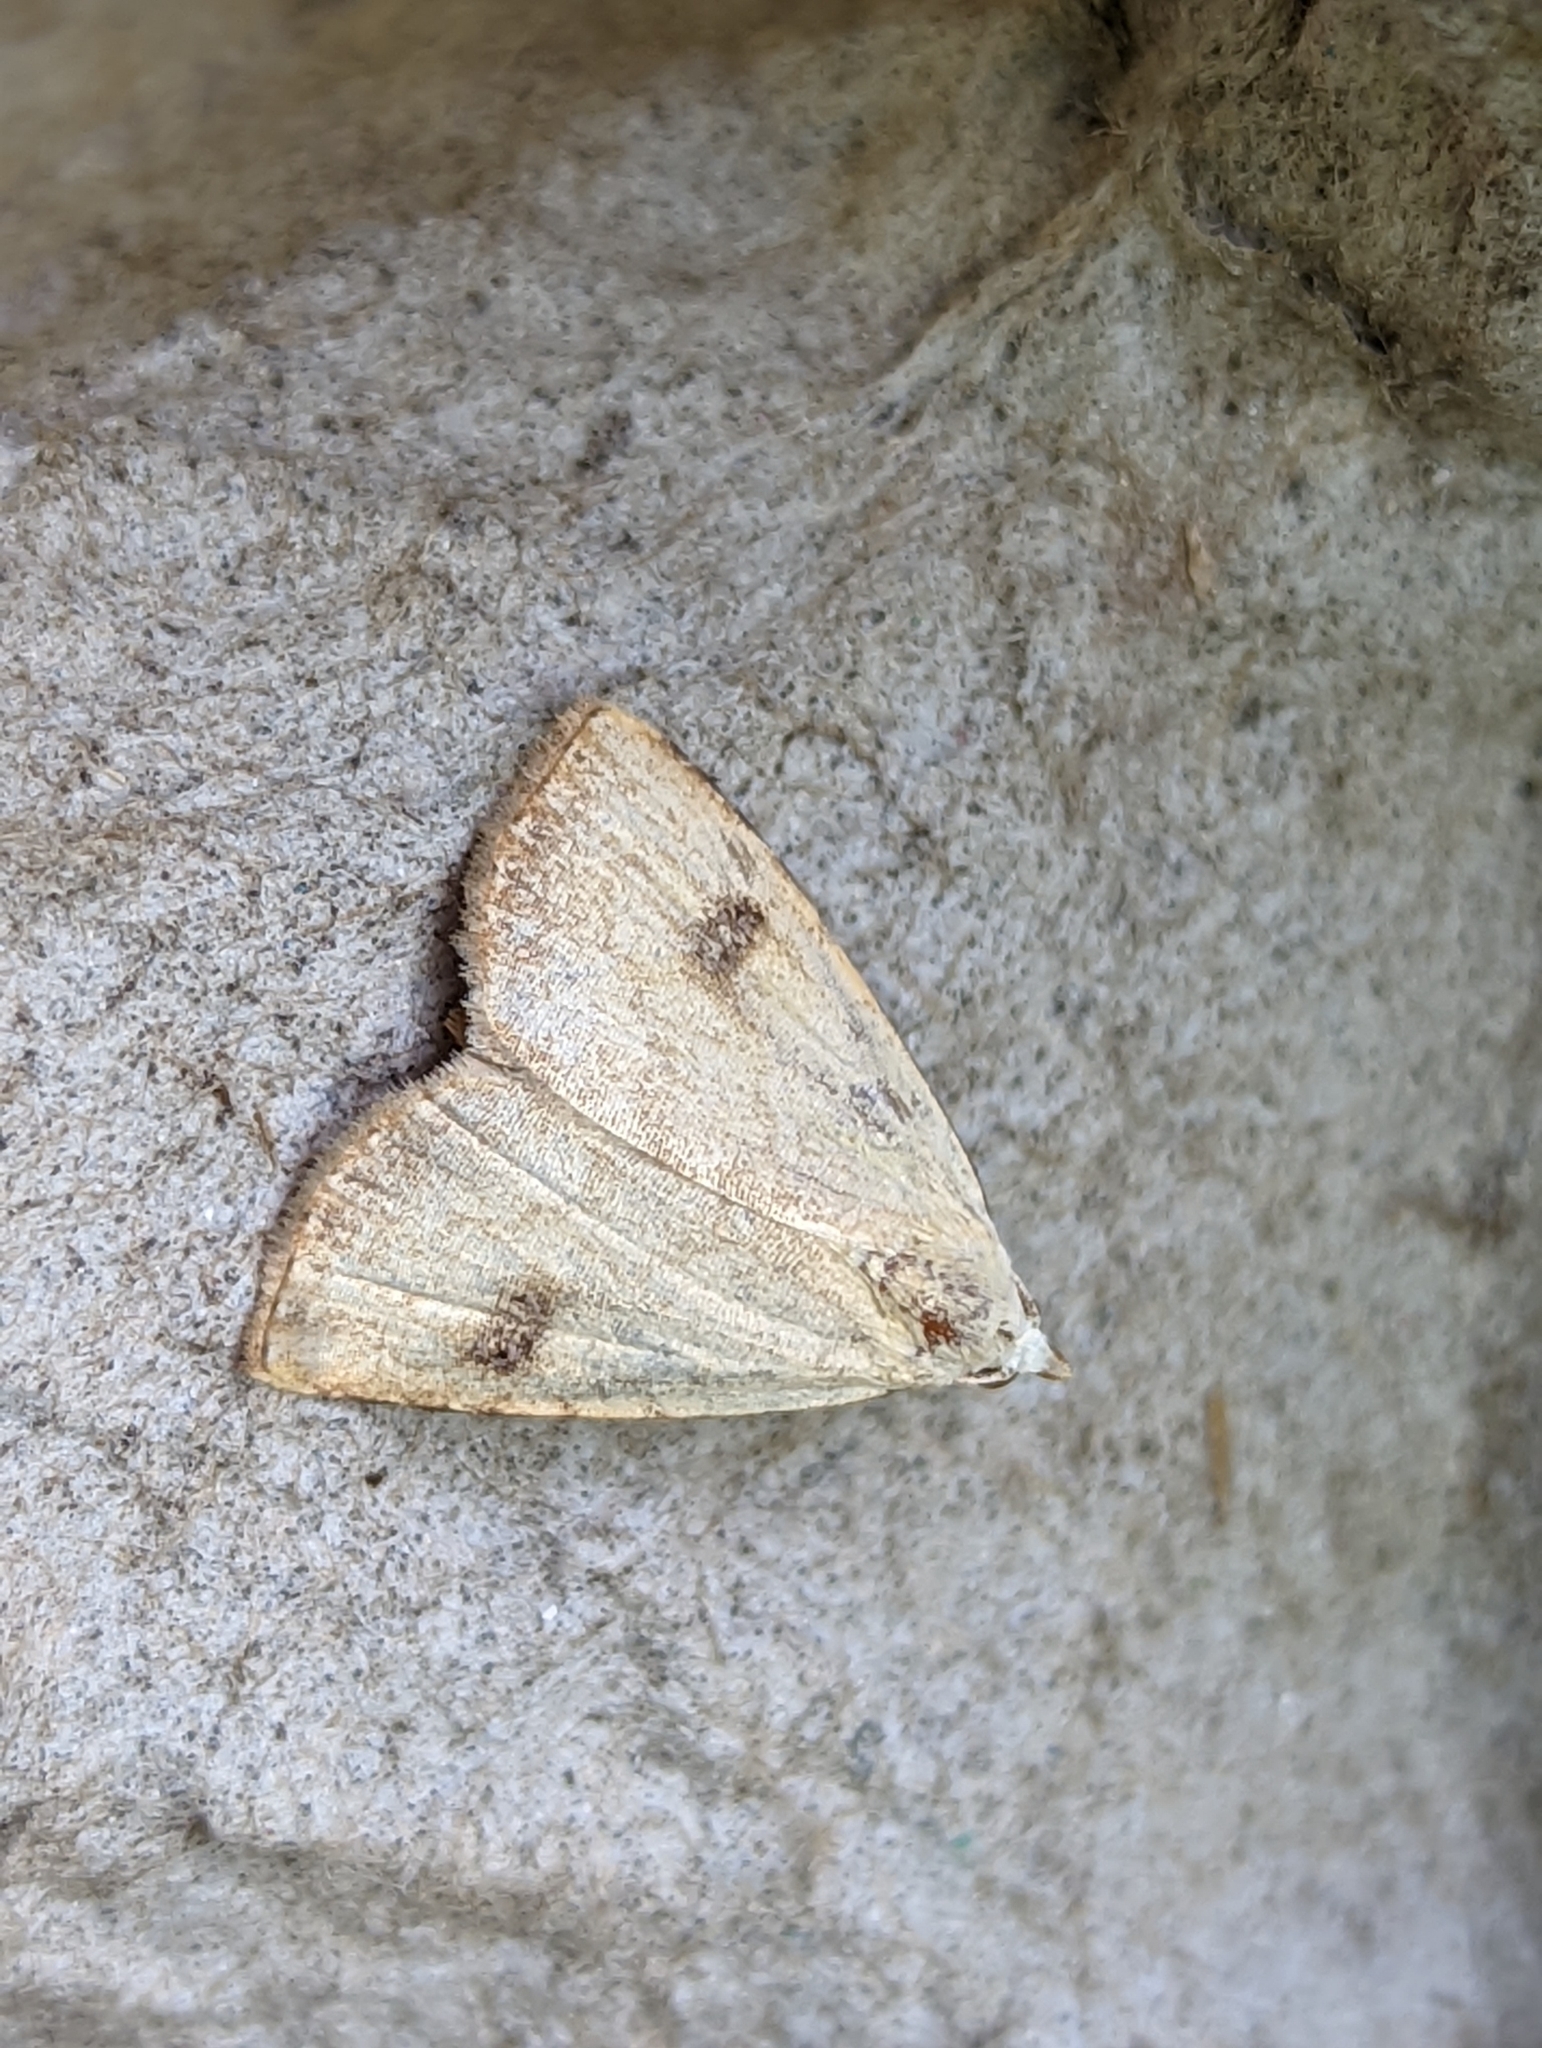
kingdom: Animalia
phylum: Arthropoda
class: Insecta
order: Lepidoptera
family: Erebidae
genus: Rivula
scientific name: Rivula sericealis
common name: Straw dot
